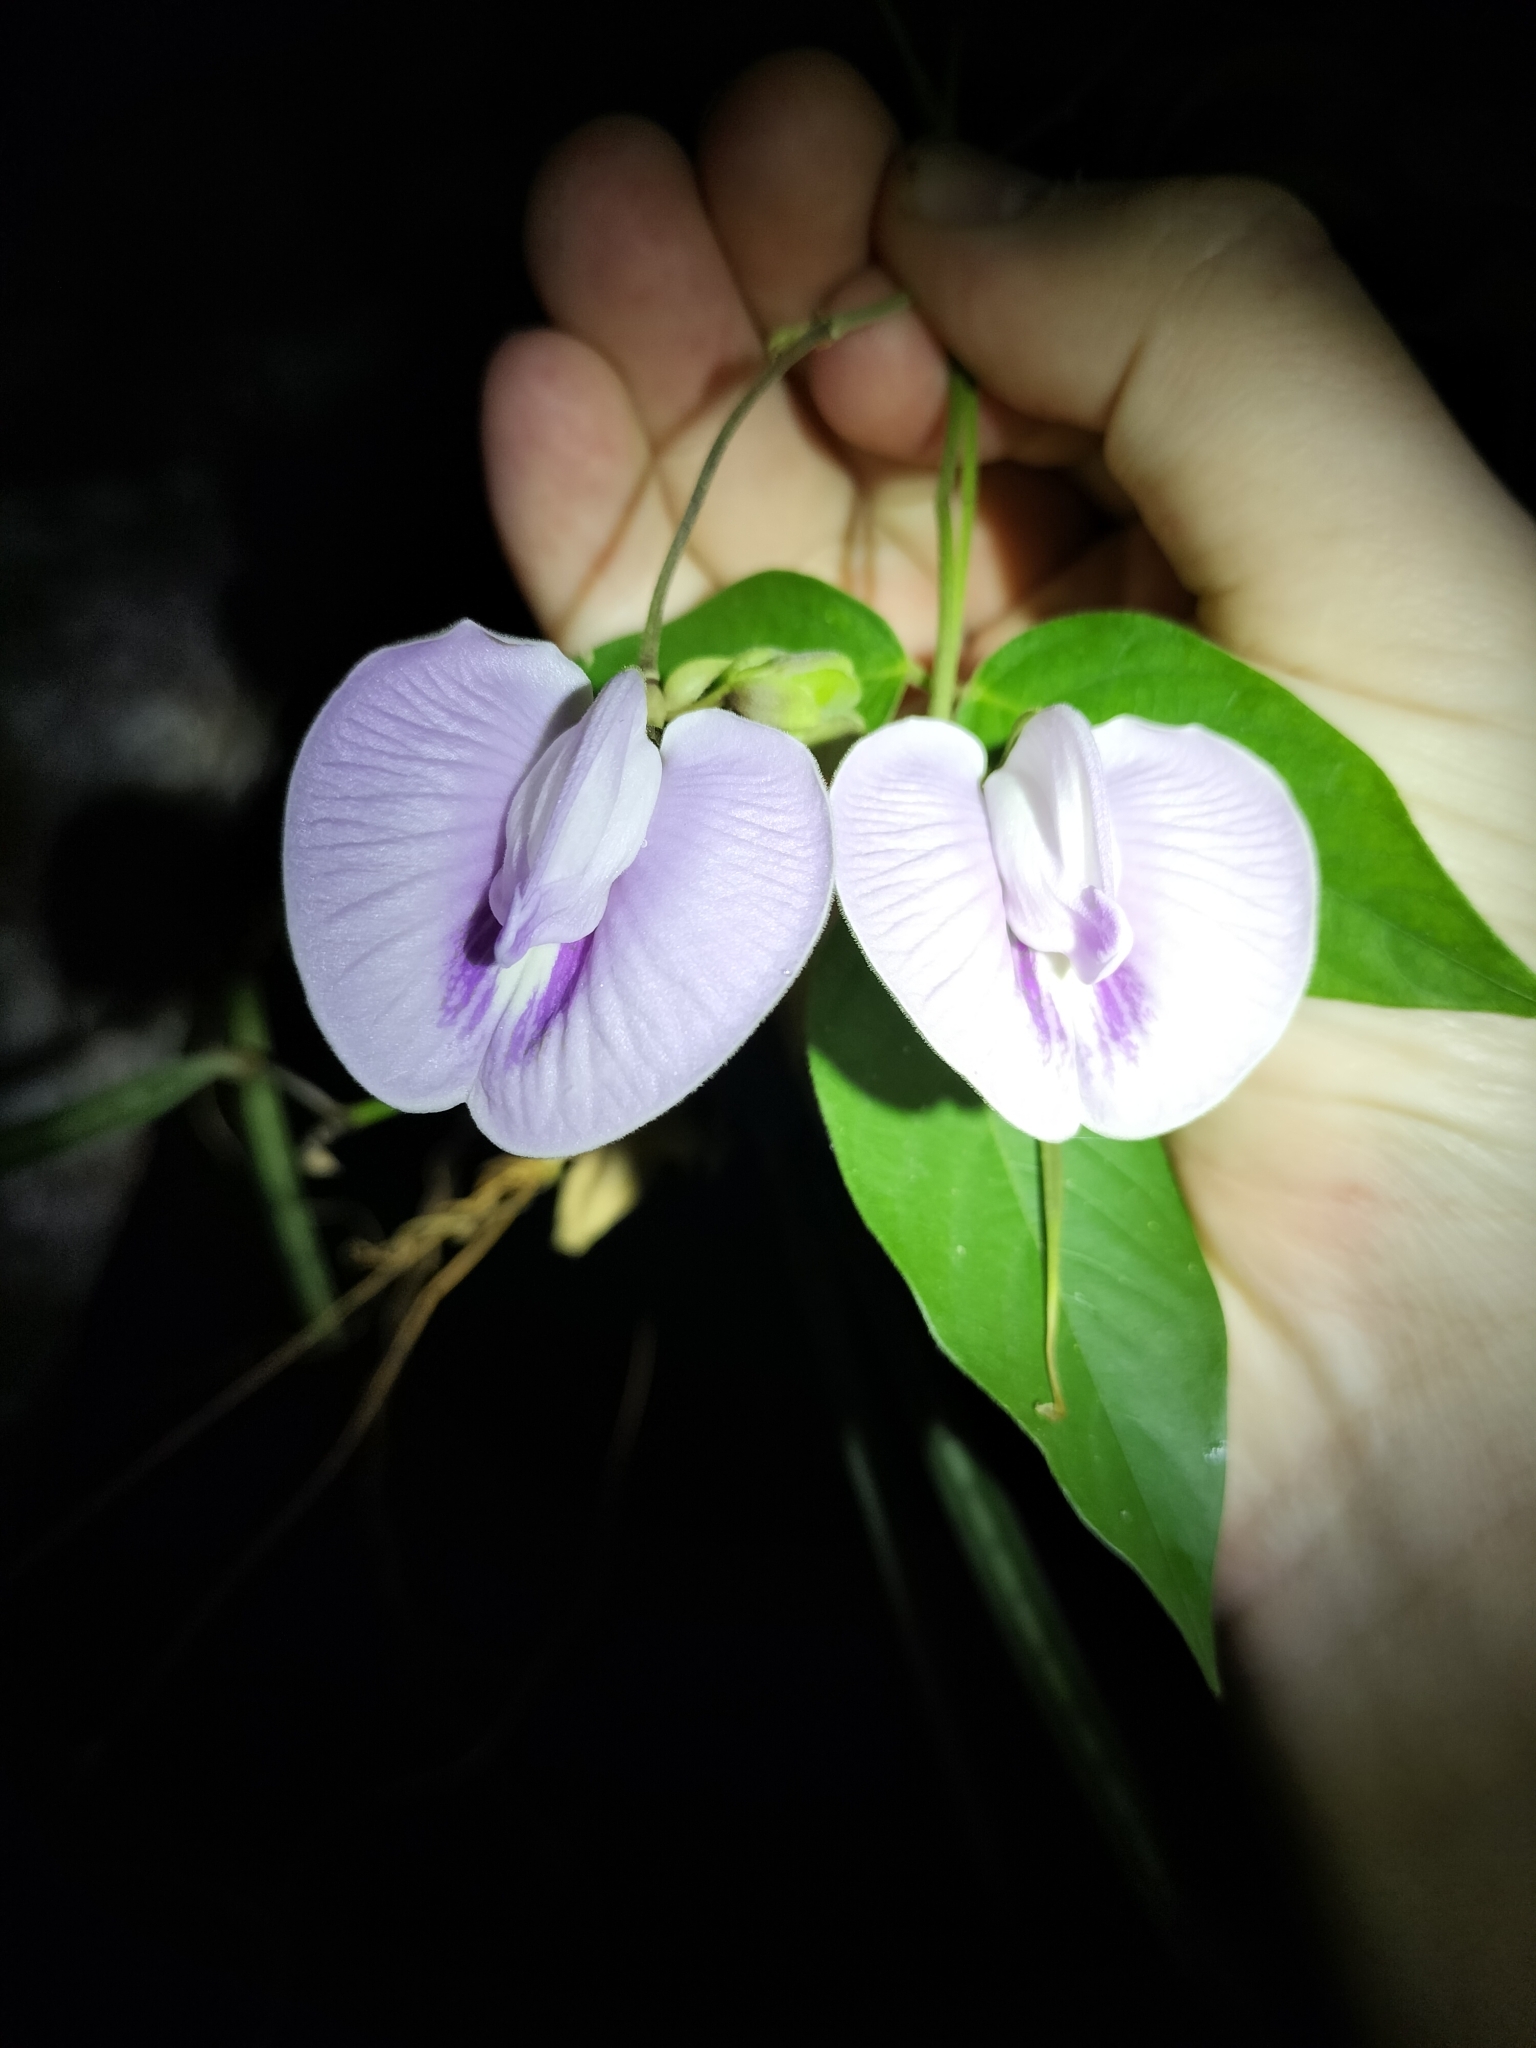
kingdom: Plantae
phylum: Tracheophyta
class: Magnoliopsida
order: Fabales
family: Fabaceae
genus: Centrosema
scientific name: Centrosema molle
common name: Soft butterfly pea
